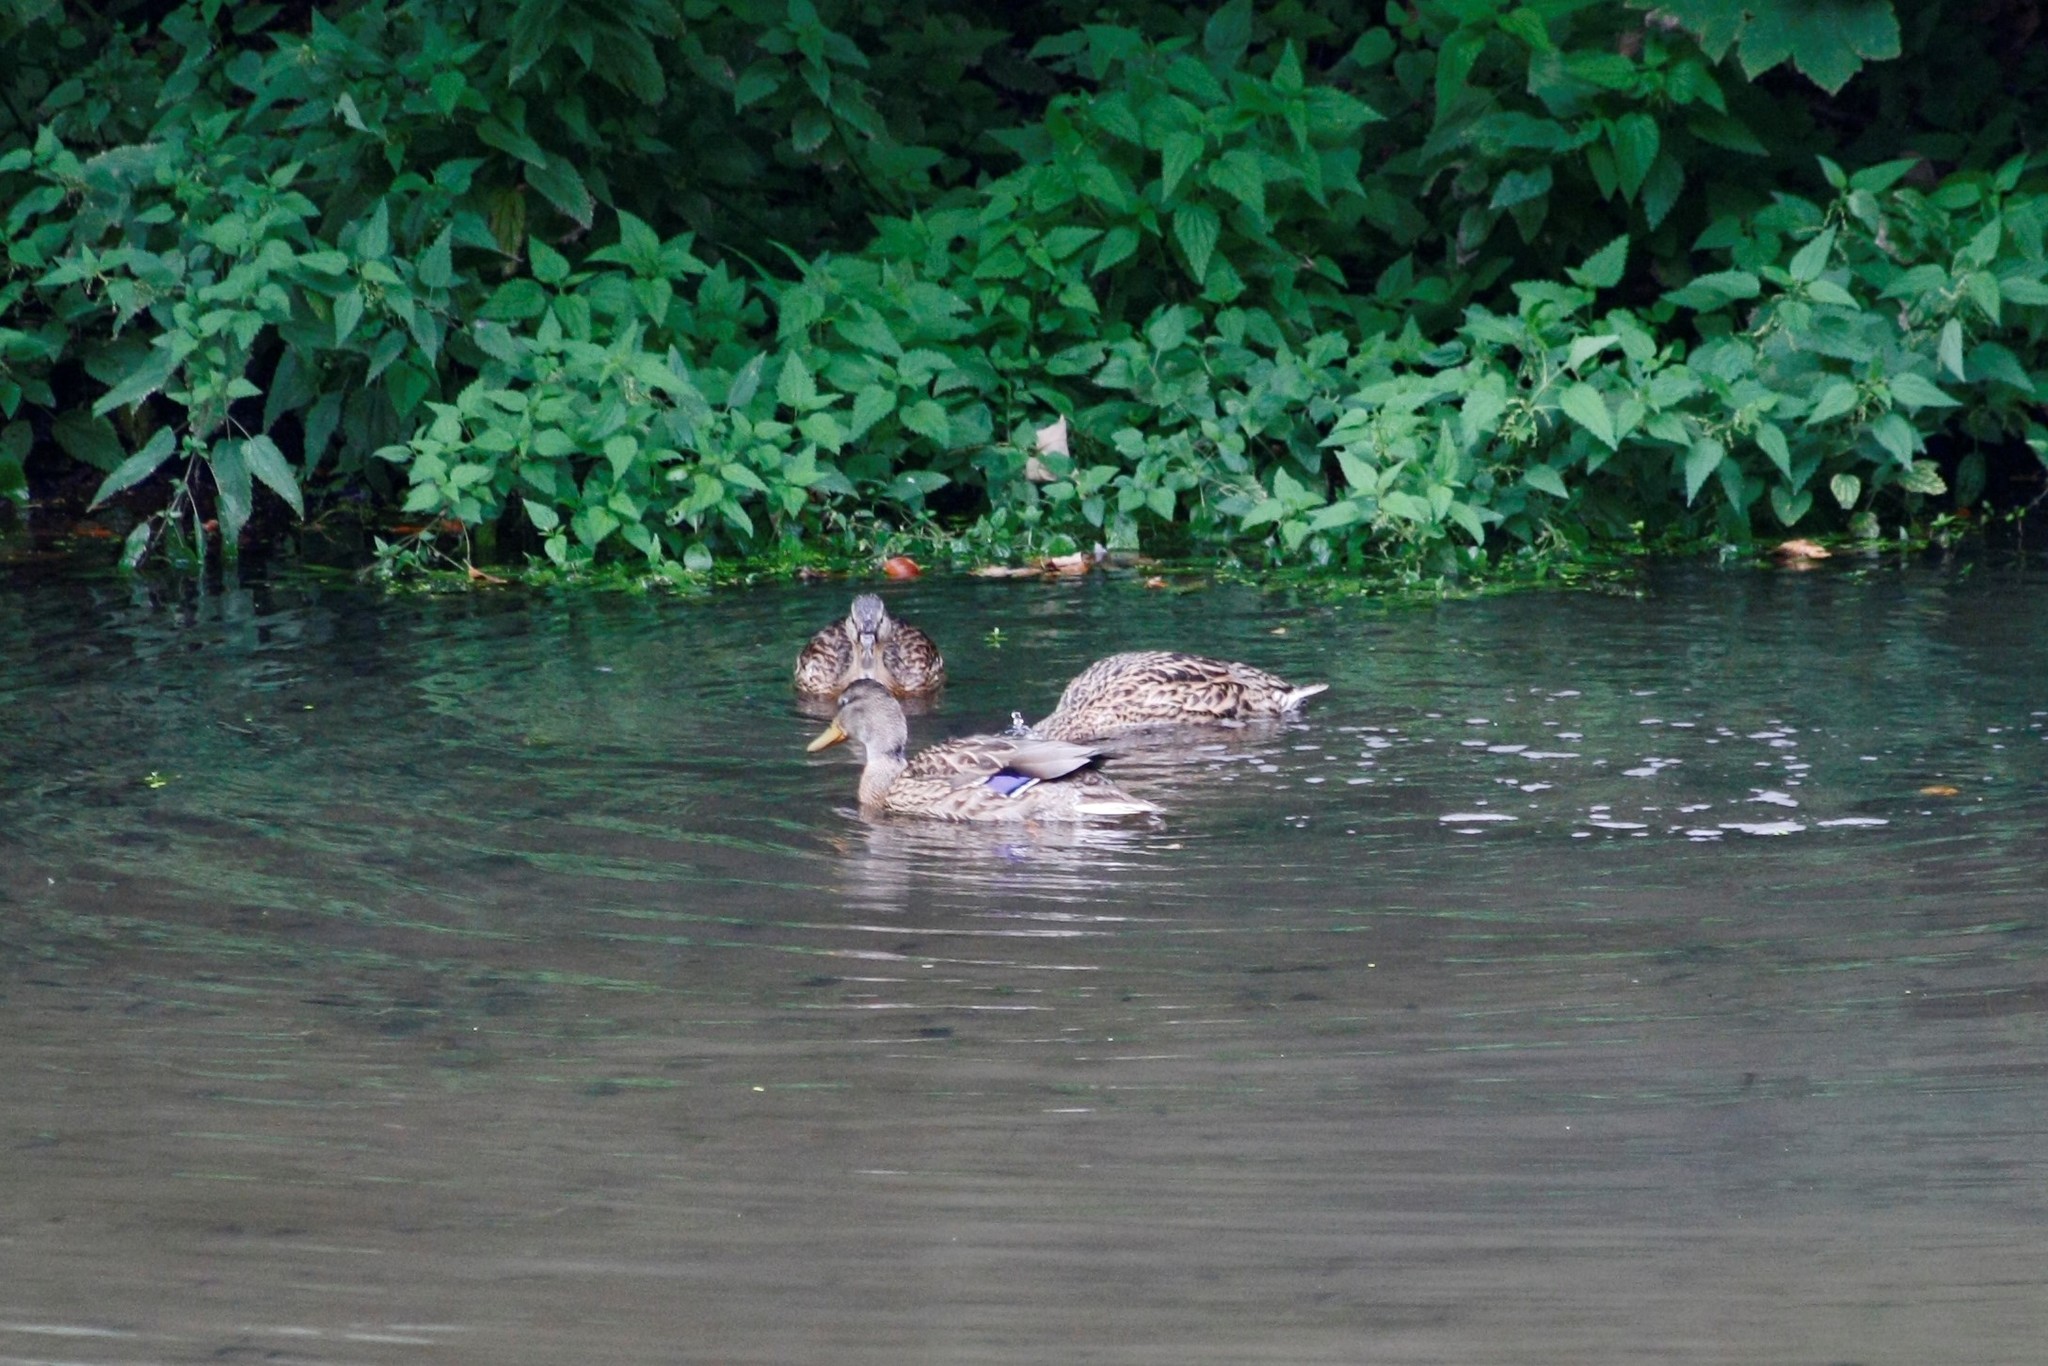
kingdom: Animalia
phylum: Chordata
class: Aves
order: Anseriformes
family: Anatidae
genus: Anas
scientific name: Anas platyrhynchos
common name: Mallard
